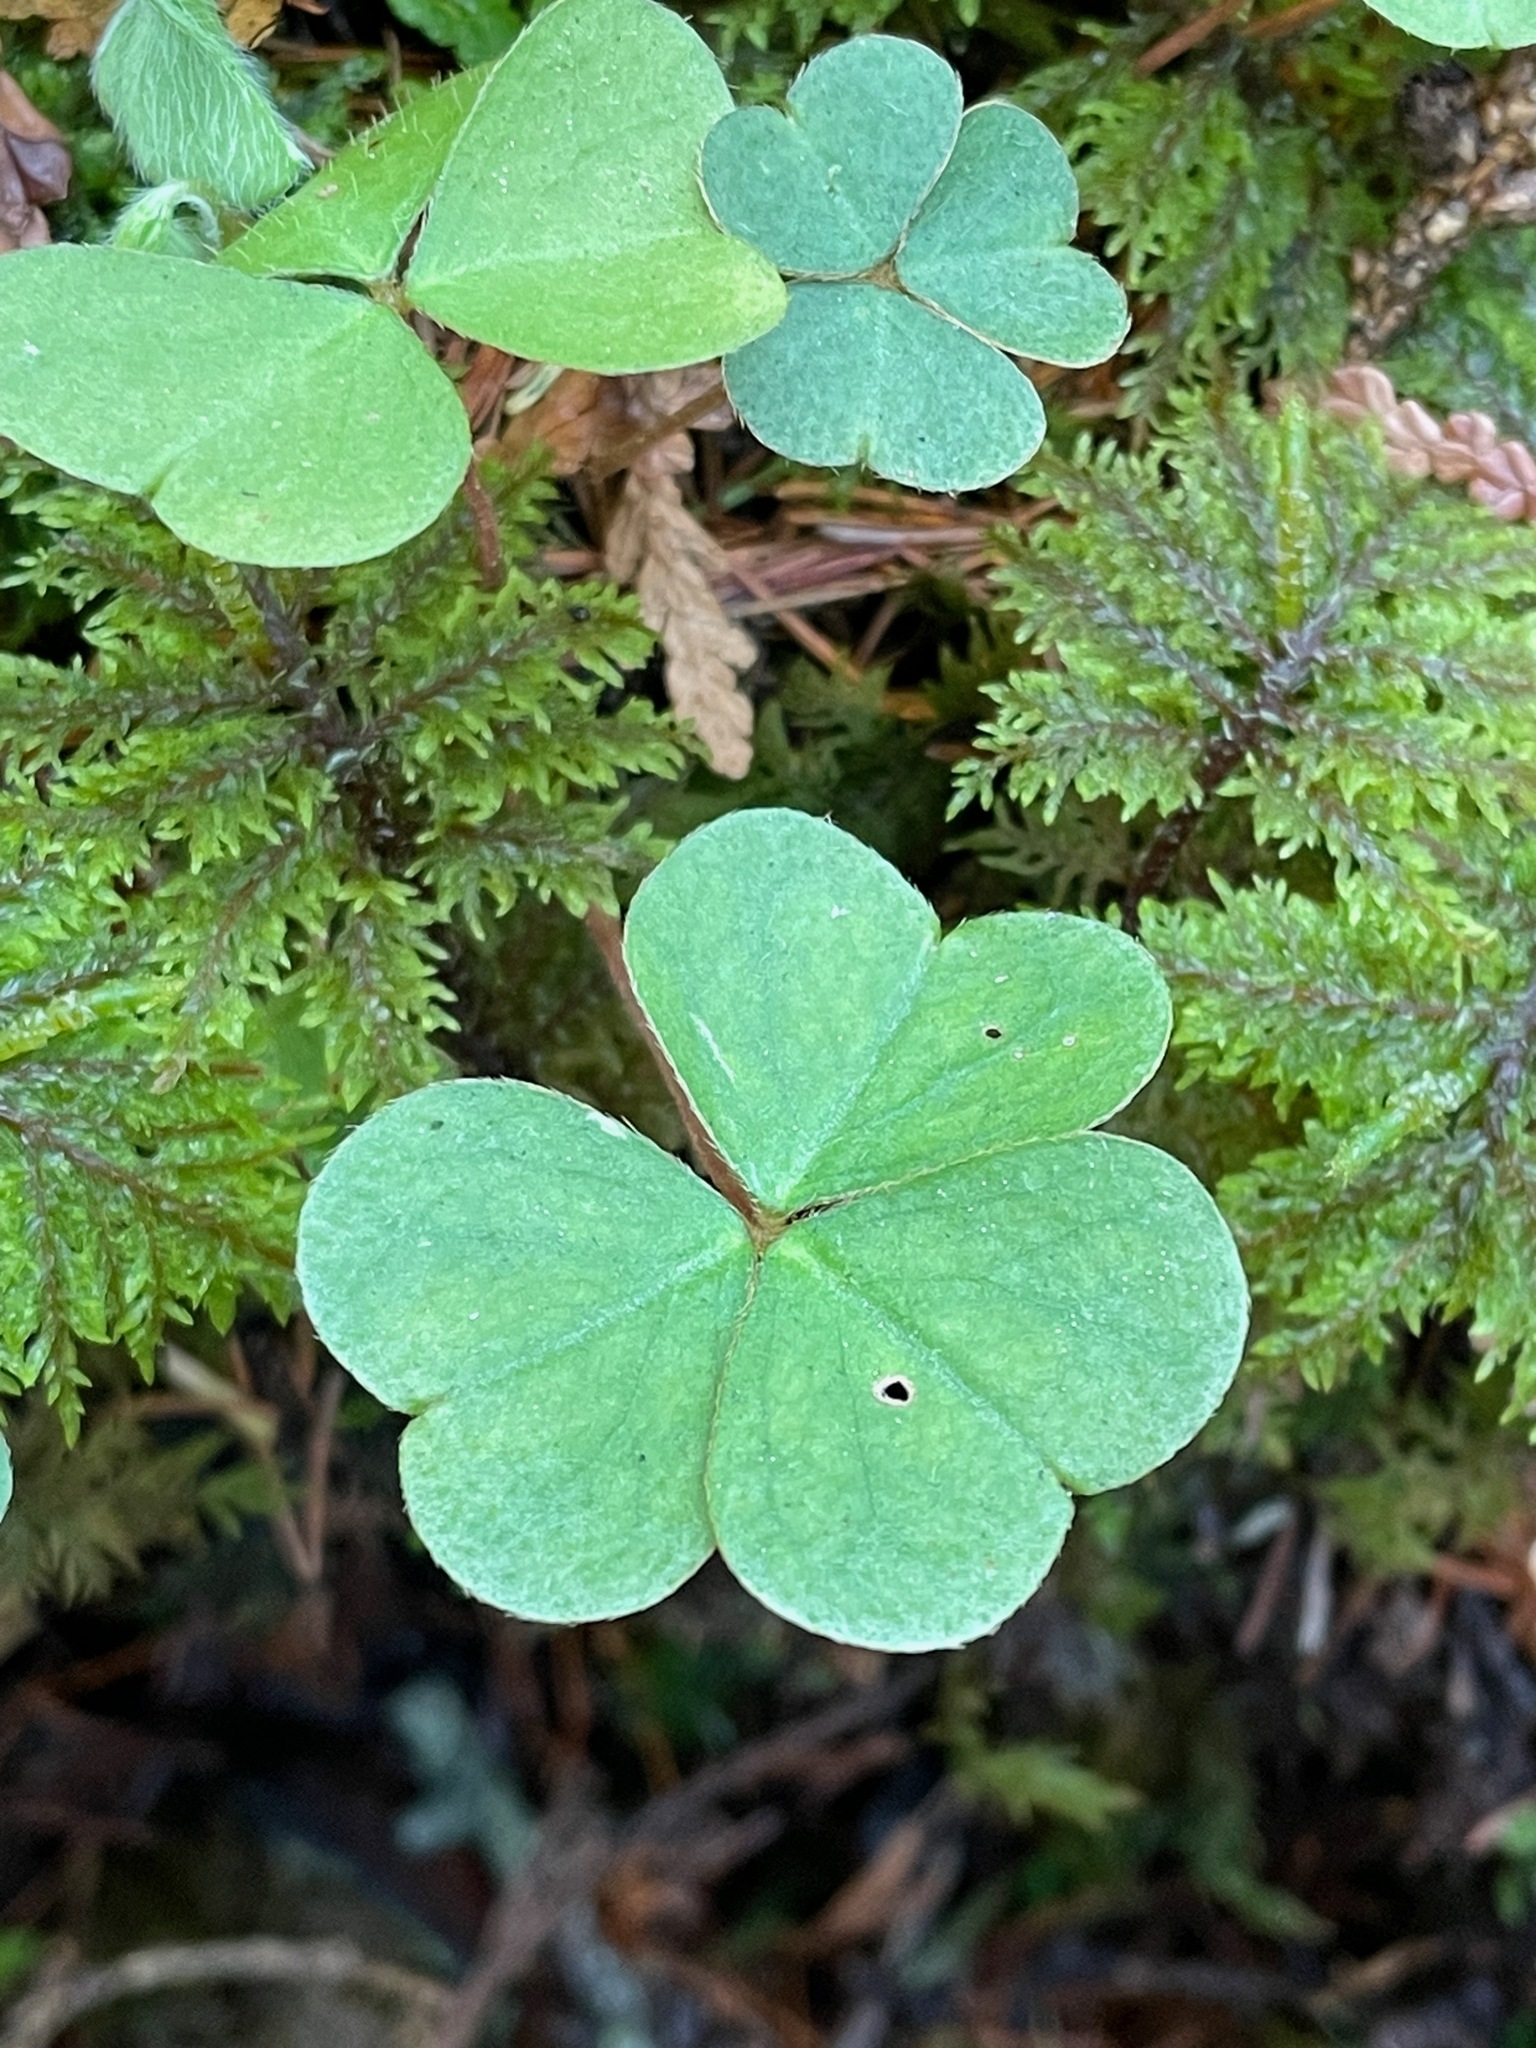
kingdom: Plantae
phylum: Tracheophyta
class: Magnoliopsida
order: Oxalidales
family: Oxalidaceae
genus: Oxalis
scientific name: Oxalis montana
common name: American wood-sorrel
